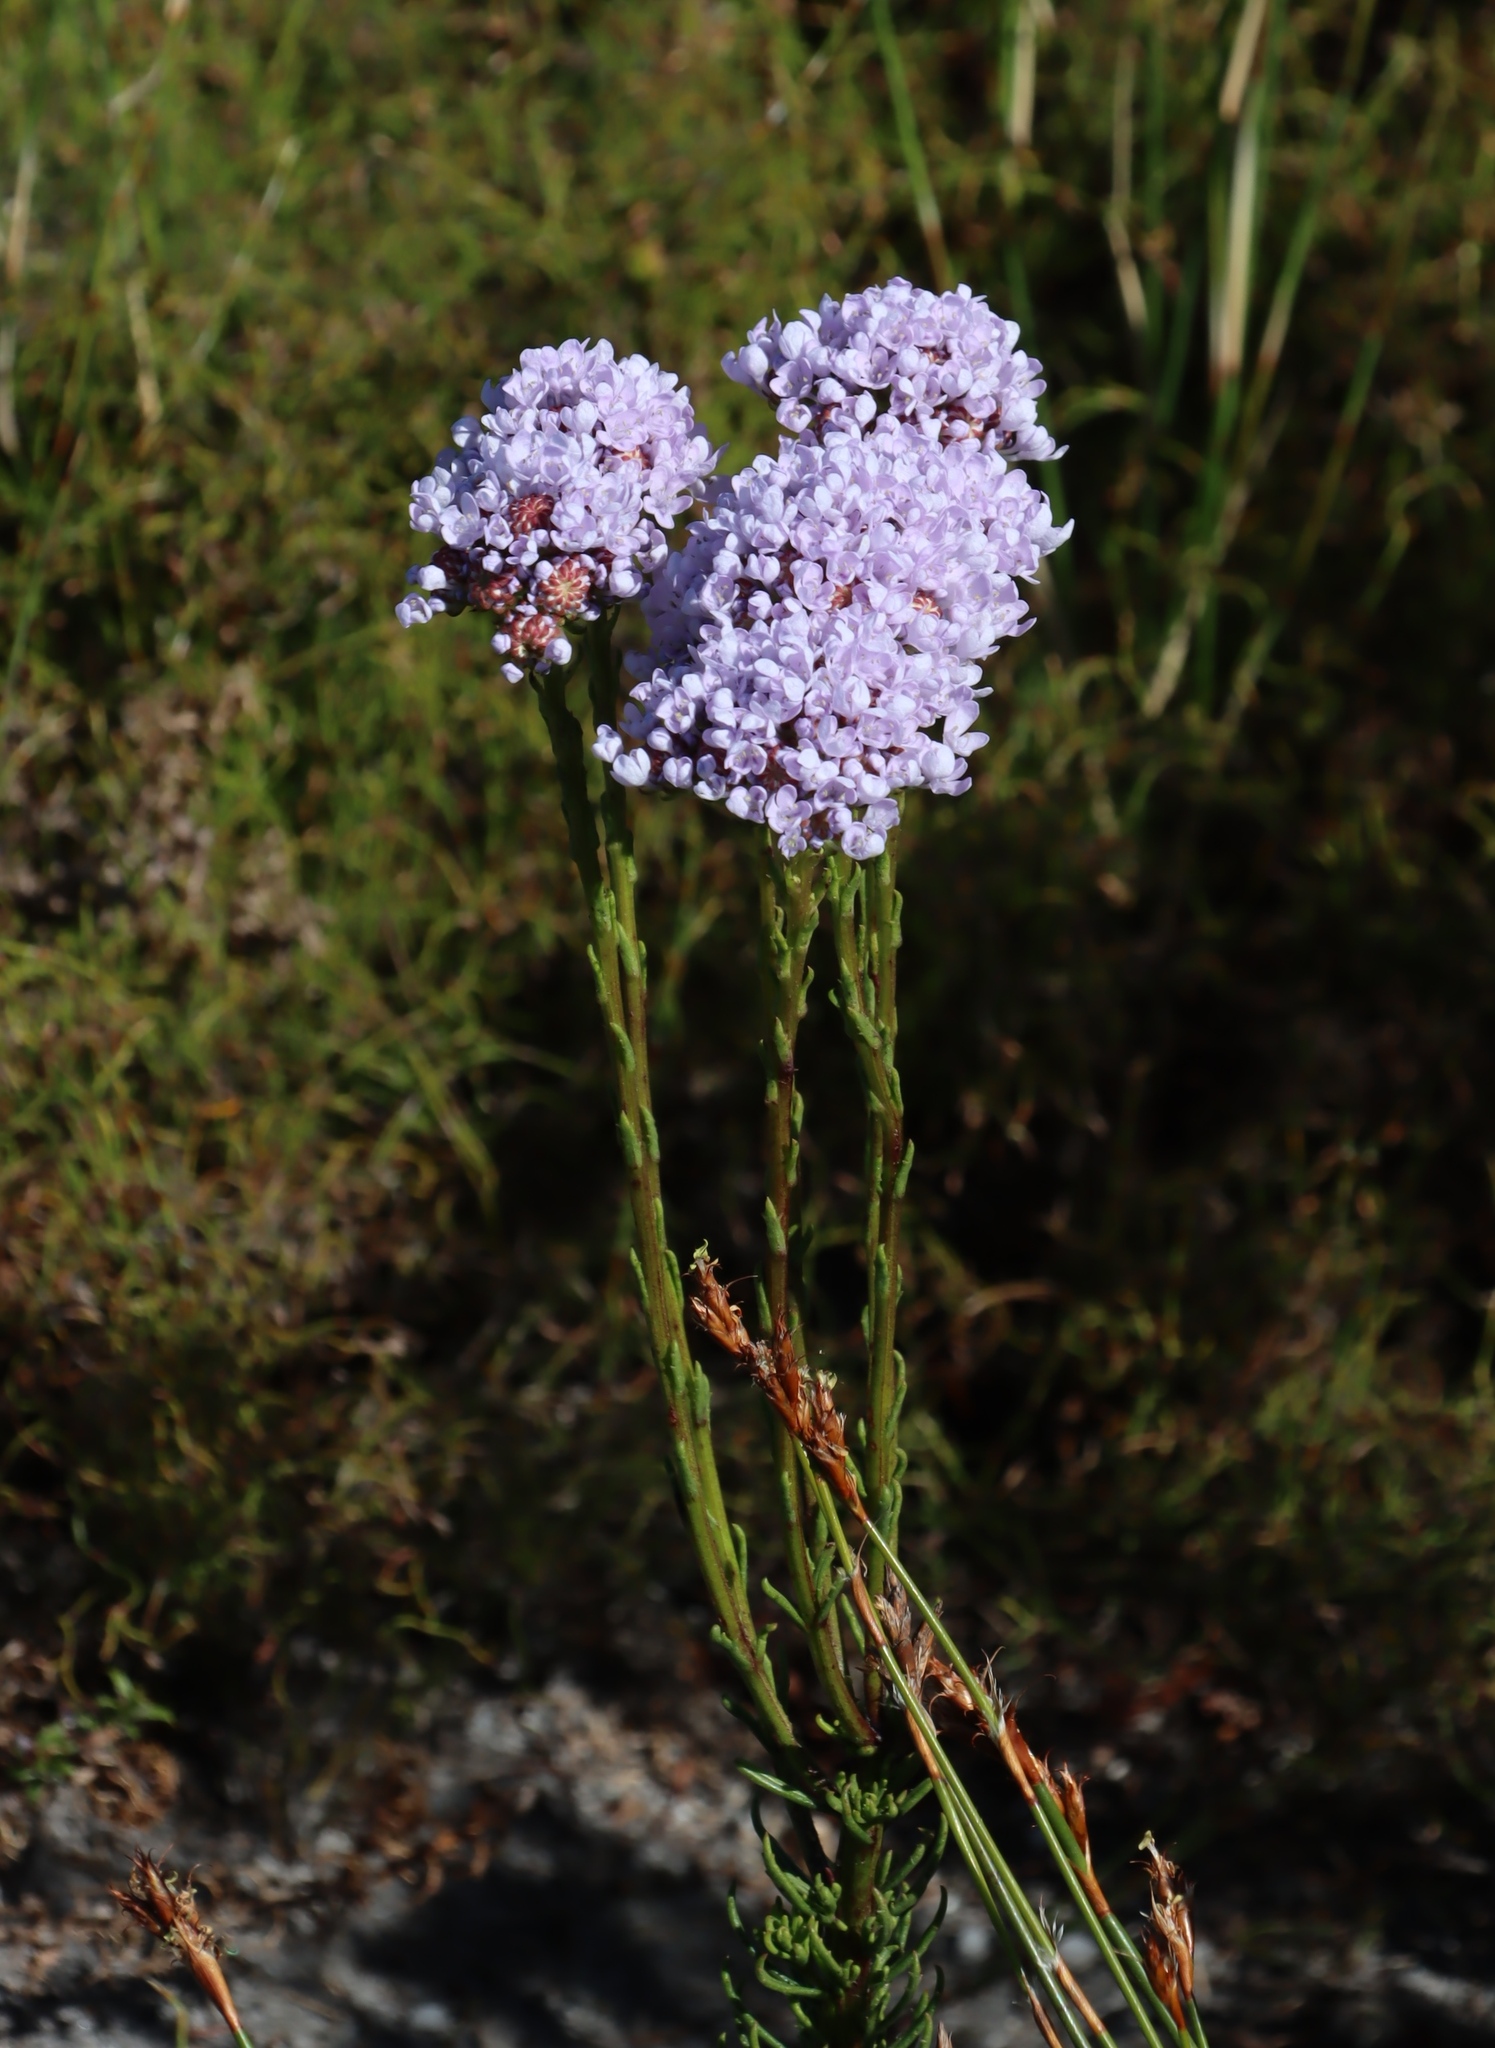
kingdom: Plantae
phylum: Tracheophyta
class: Magnoliopsida
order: Lamiales
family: Scrophulariaceae
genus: Pseudoselago
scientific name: Pseudoselago spuria
